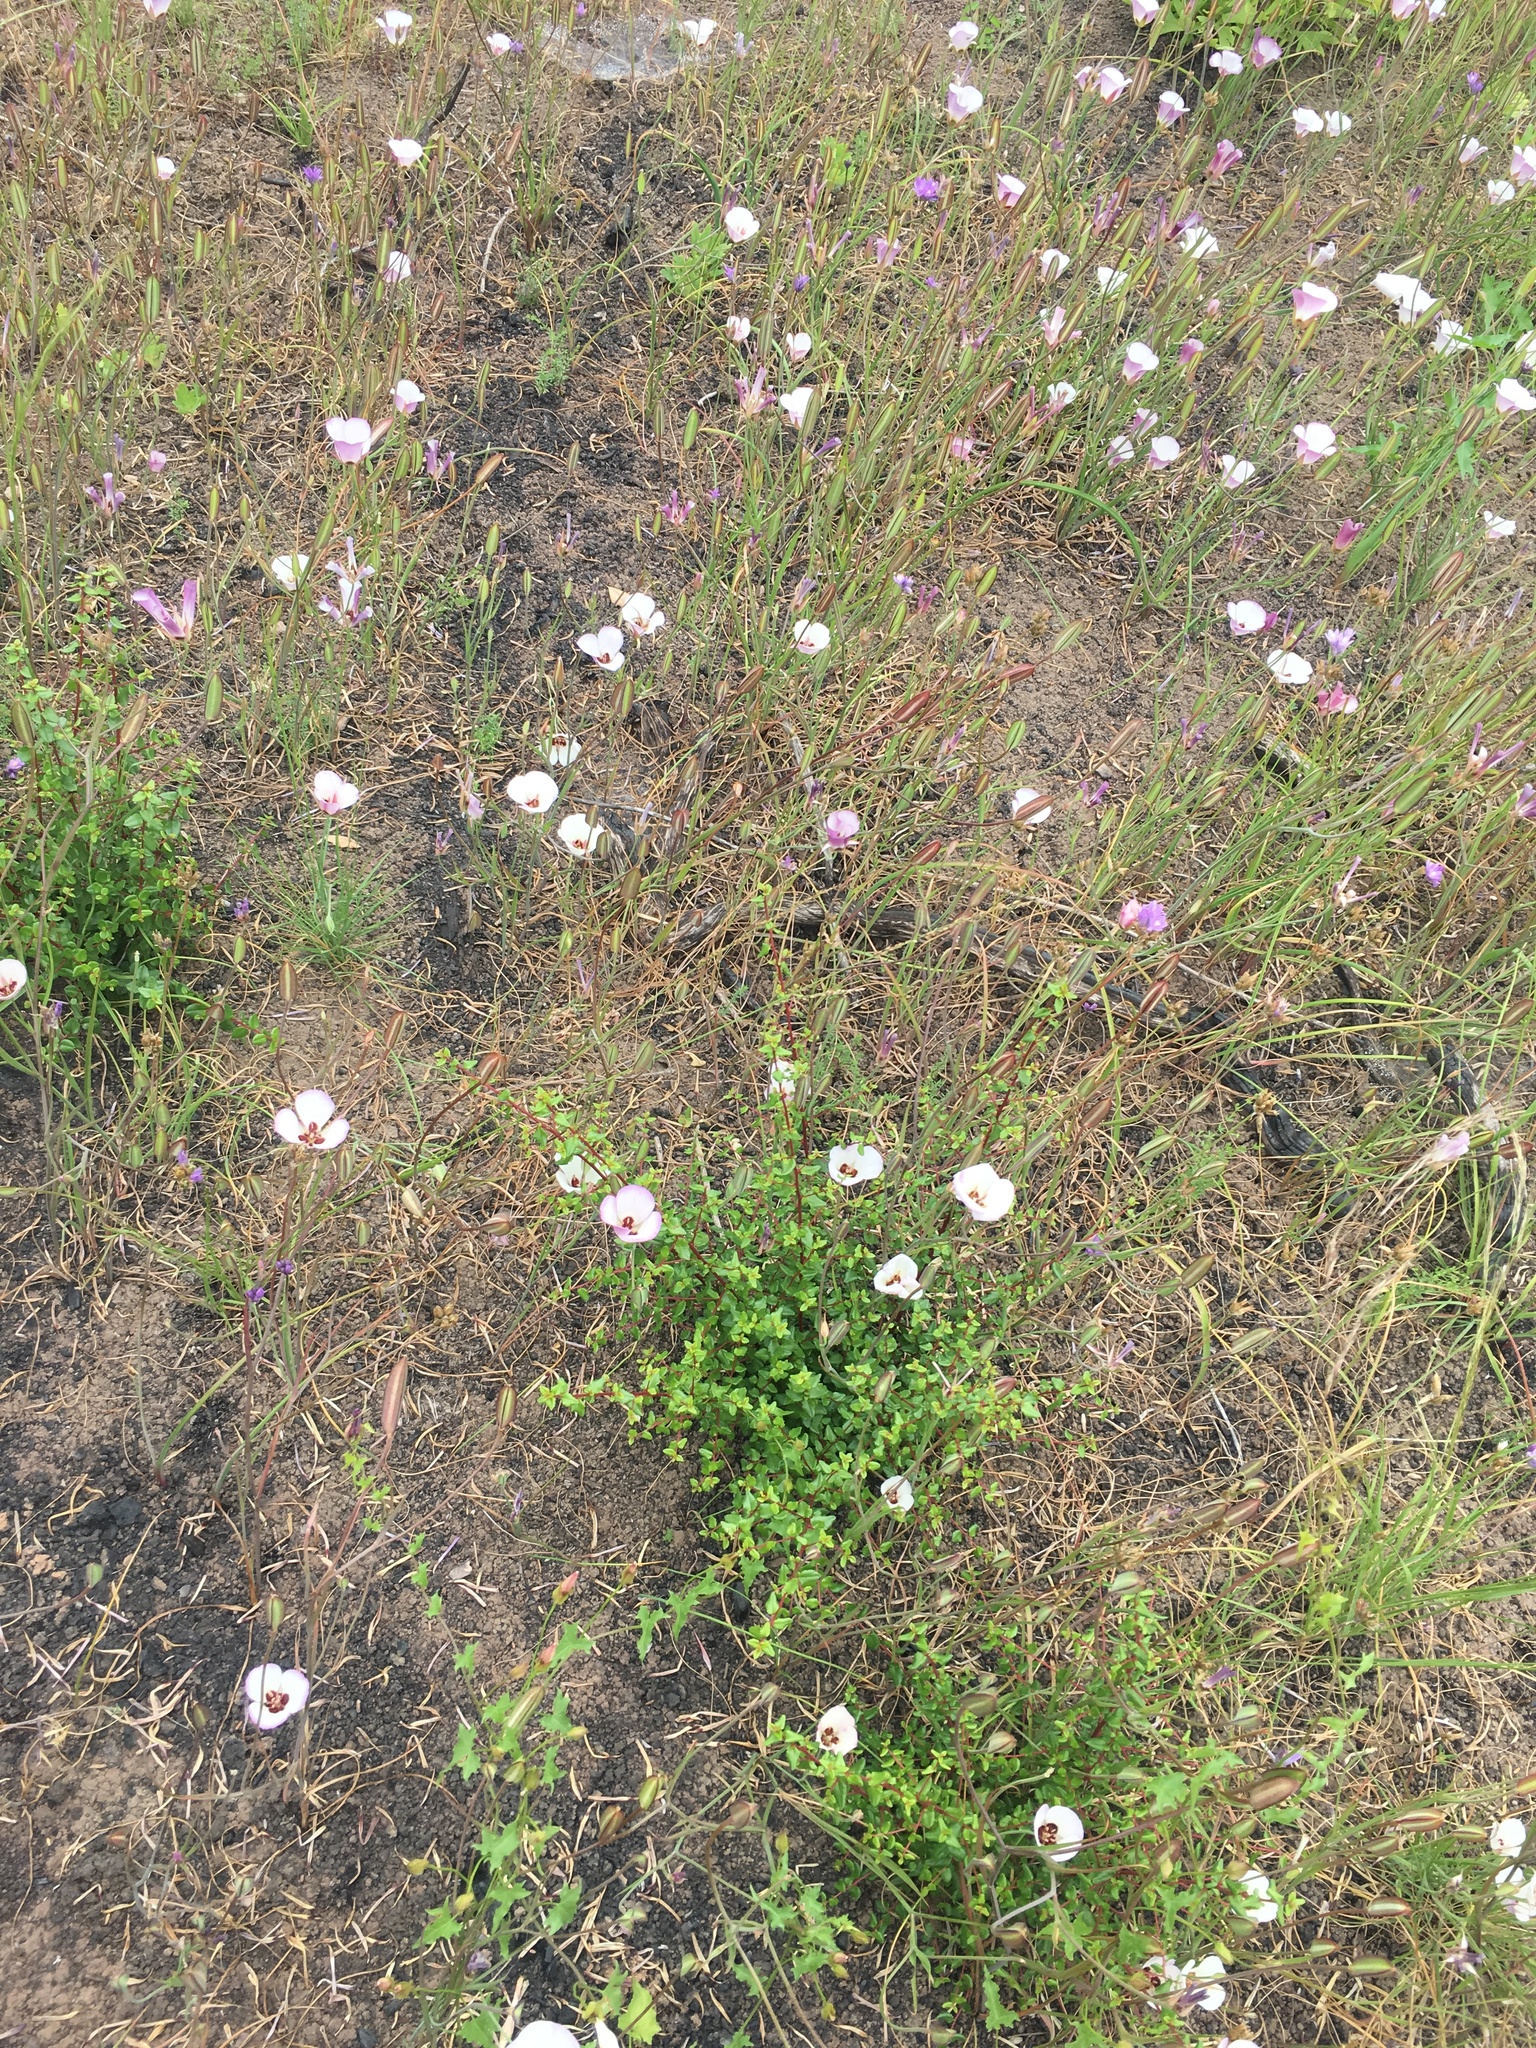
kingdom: Plantae
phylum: Tracheophyta
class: Liliopsida
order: Liliales
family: Liliaceae
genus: Calochortus
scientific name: Calochortus catalinae
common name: Catalina mariposa-lily
